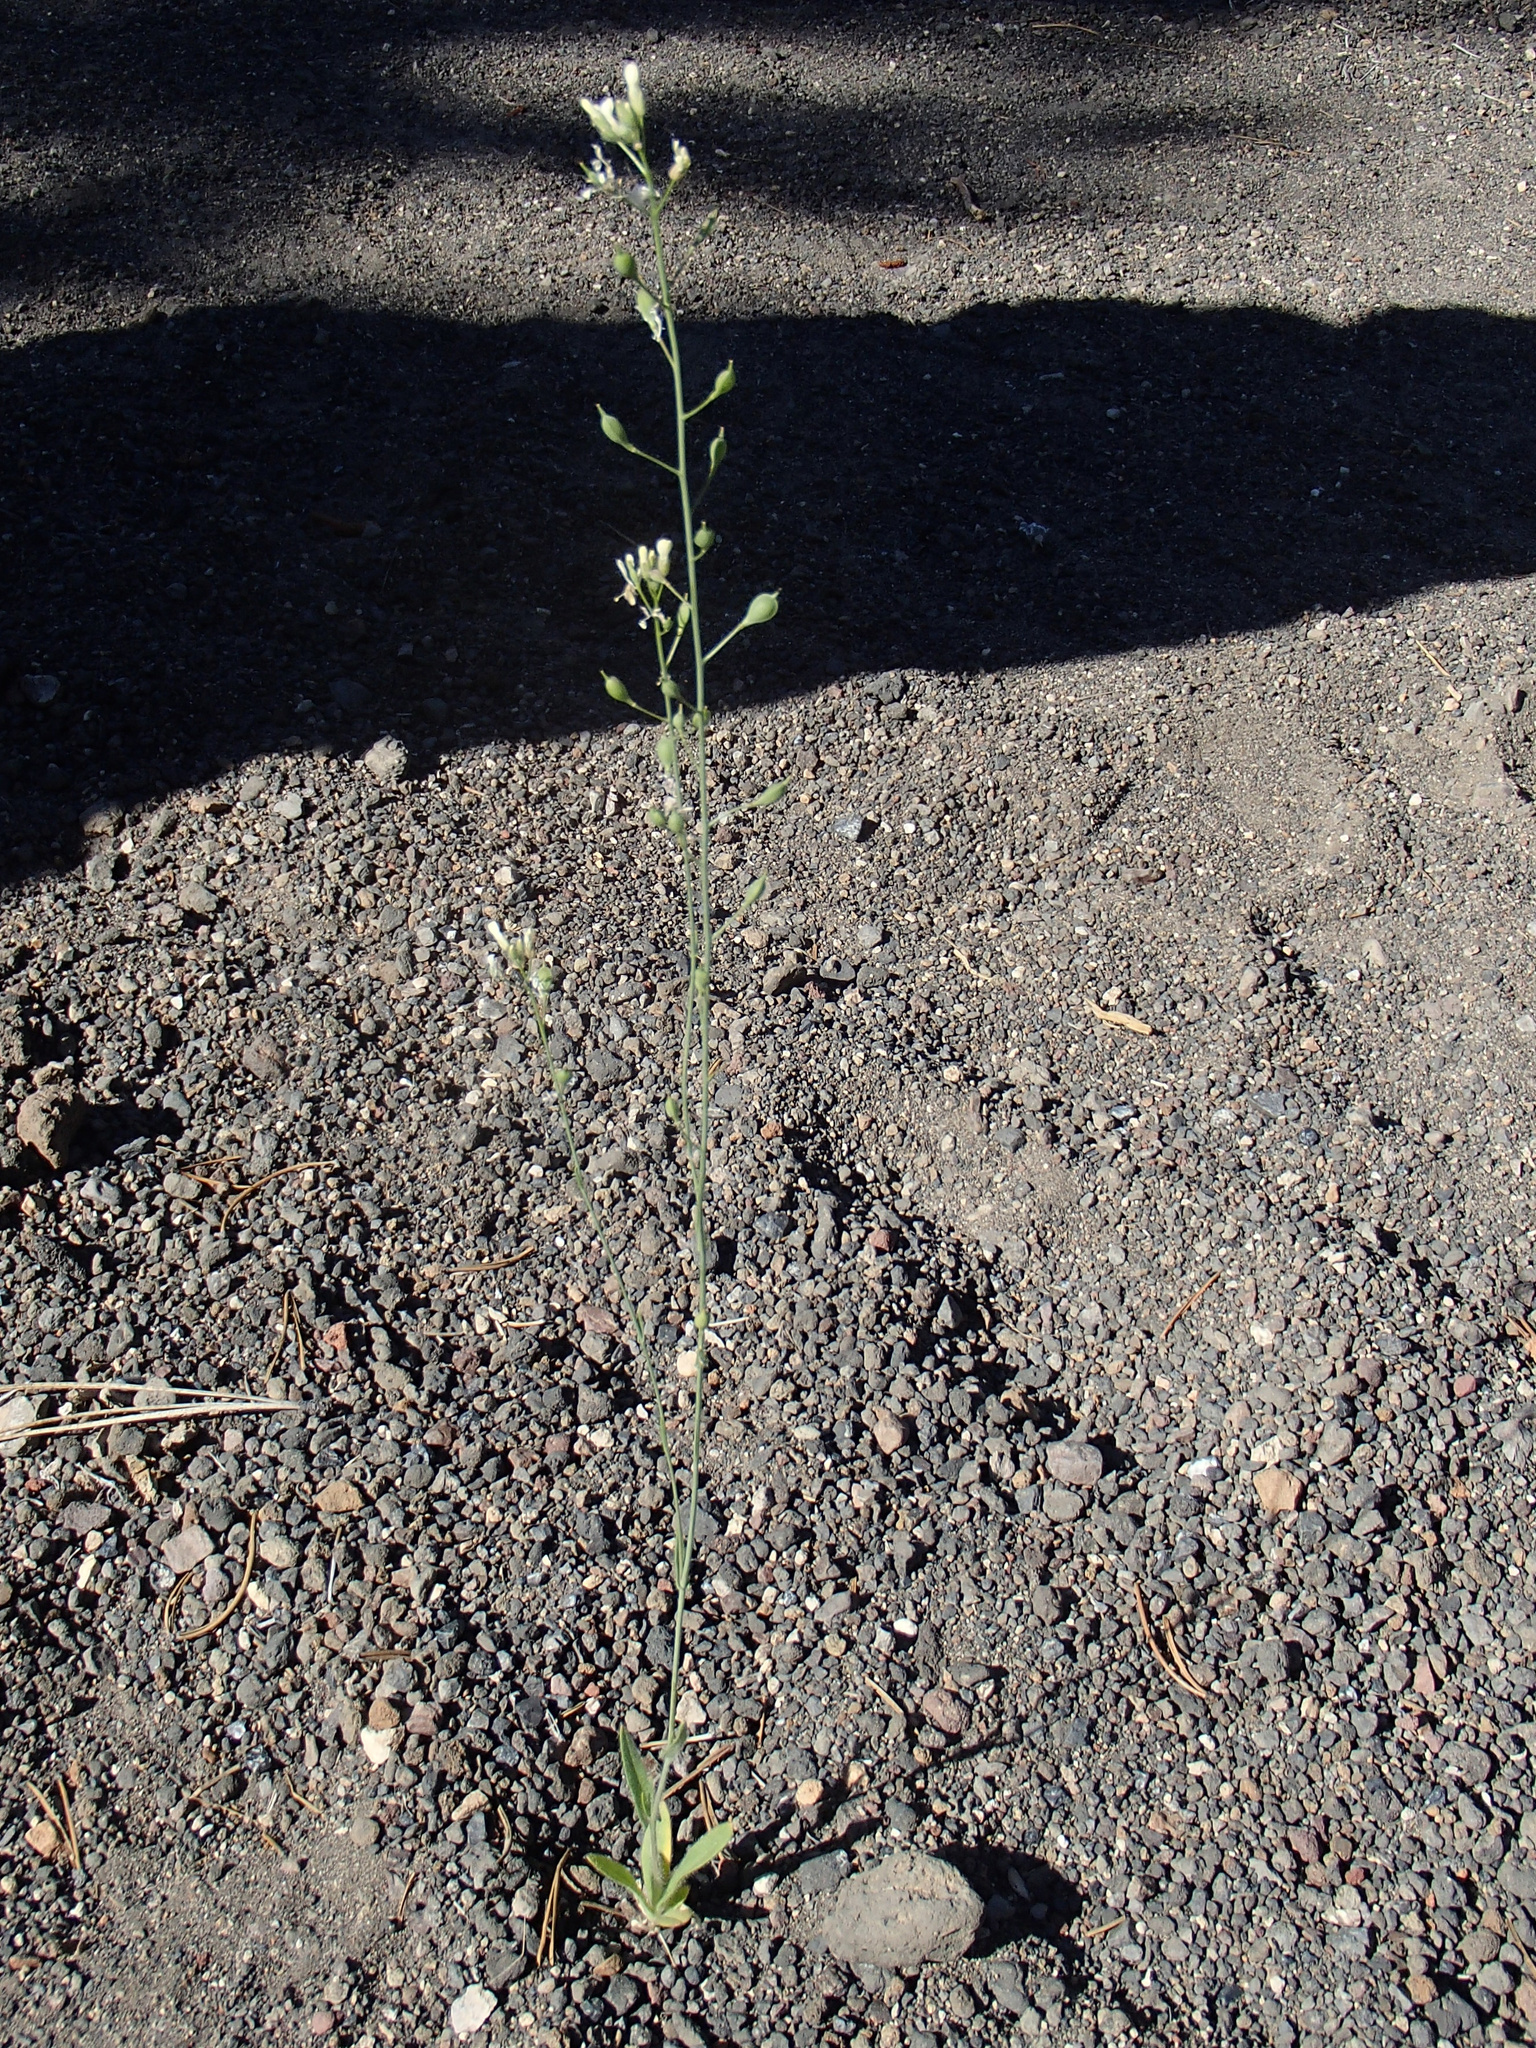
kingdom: Plantae
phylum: Tracheophyta
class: Magnoliopsida
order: Brassicales
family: Brassicaceae
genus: Camelina
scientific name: Camelina microcarpa
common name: Lesser gold-of-pleasure
